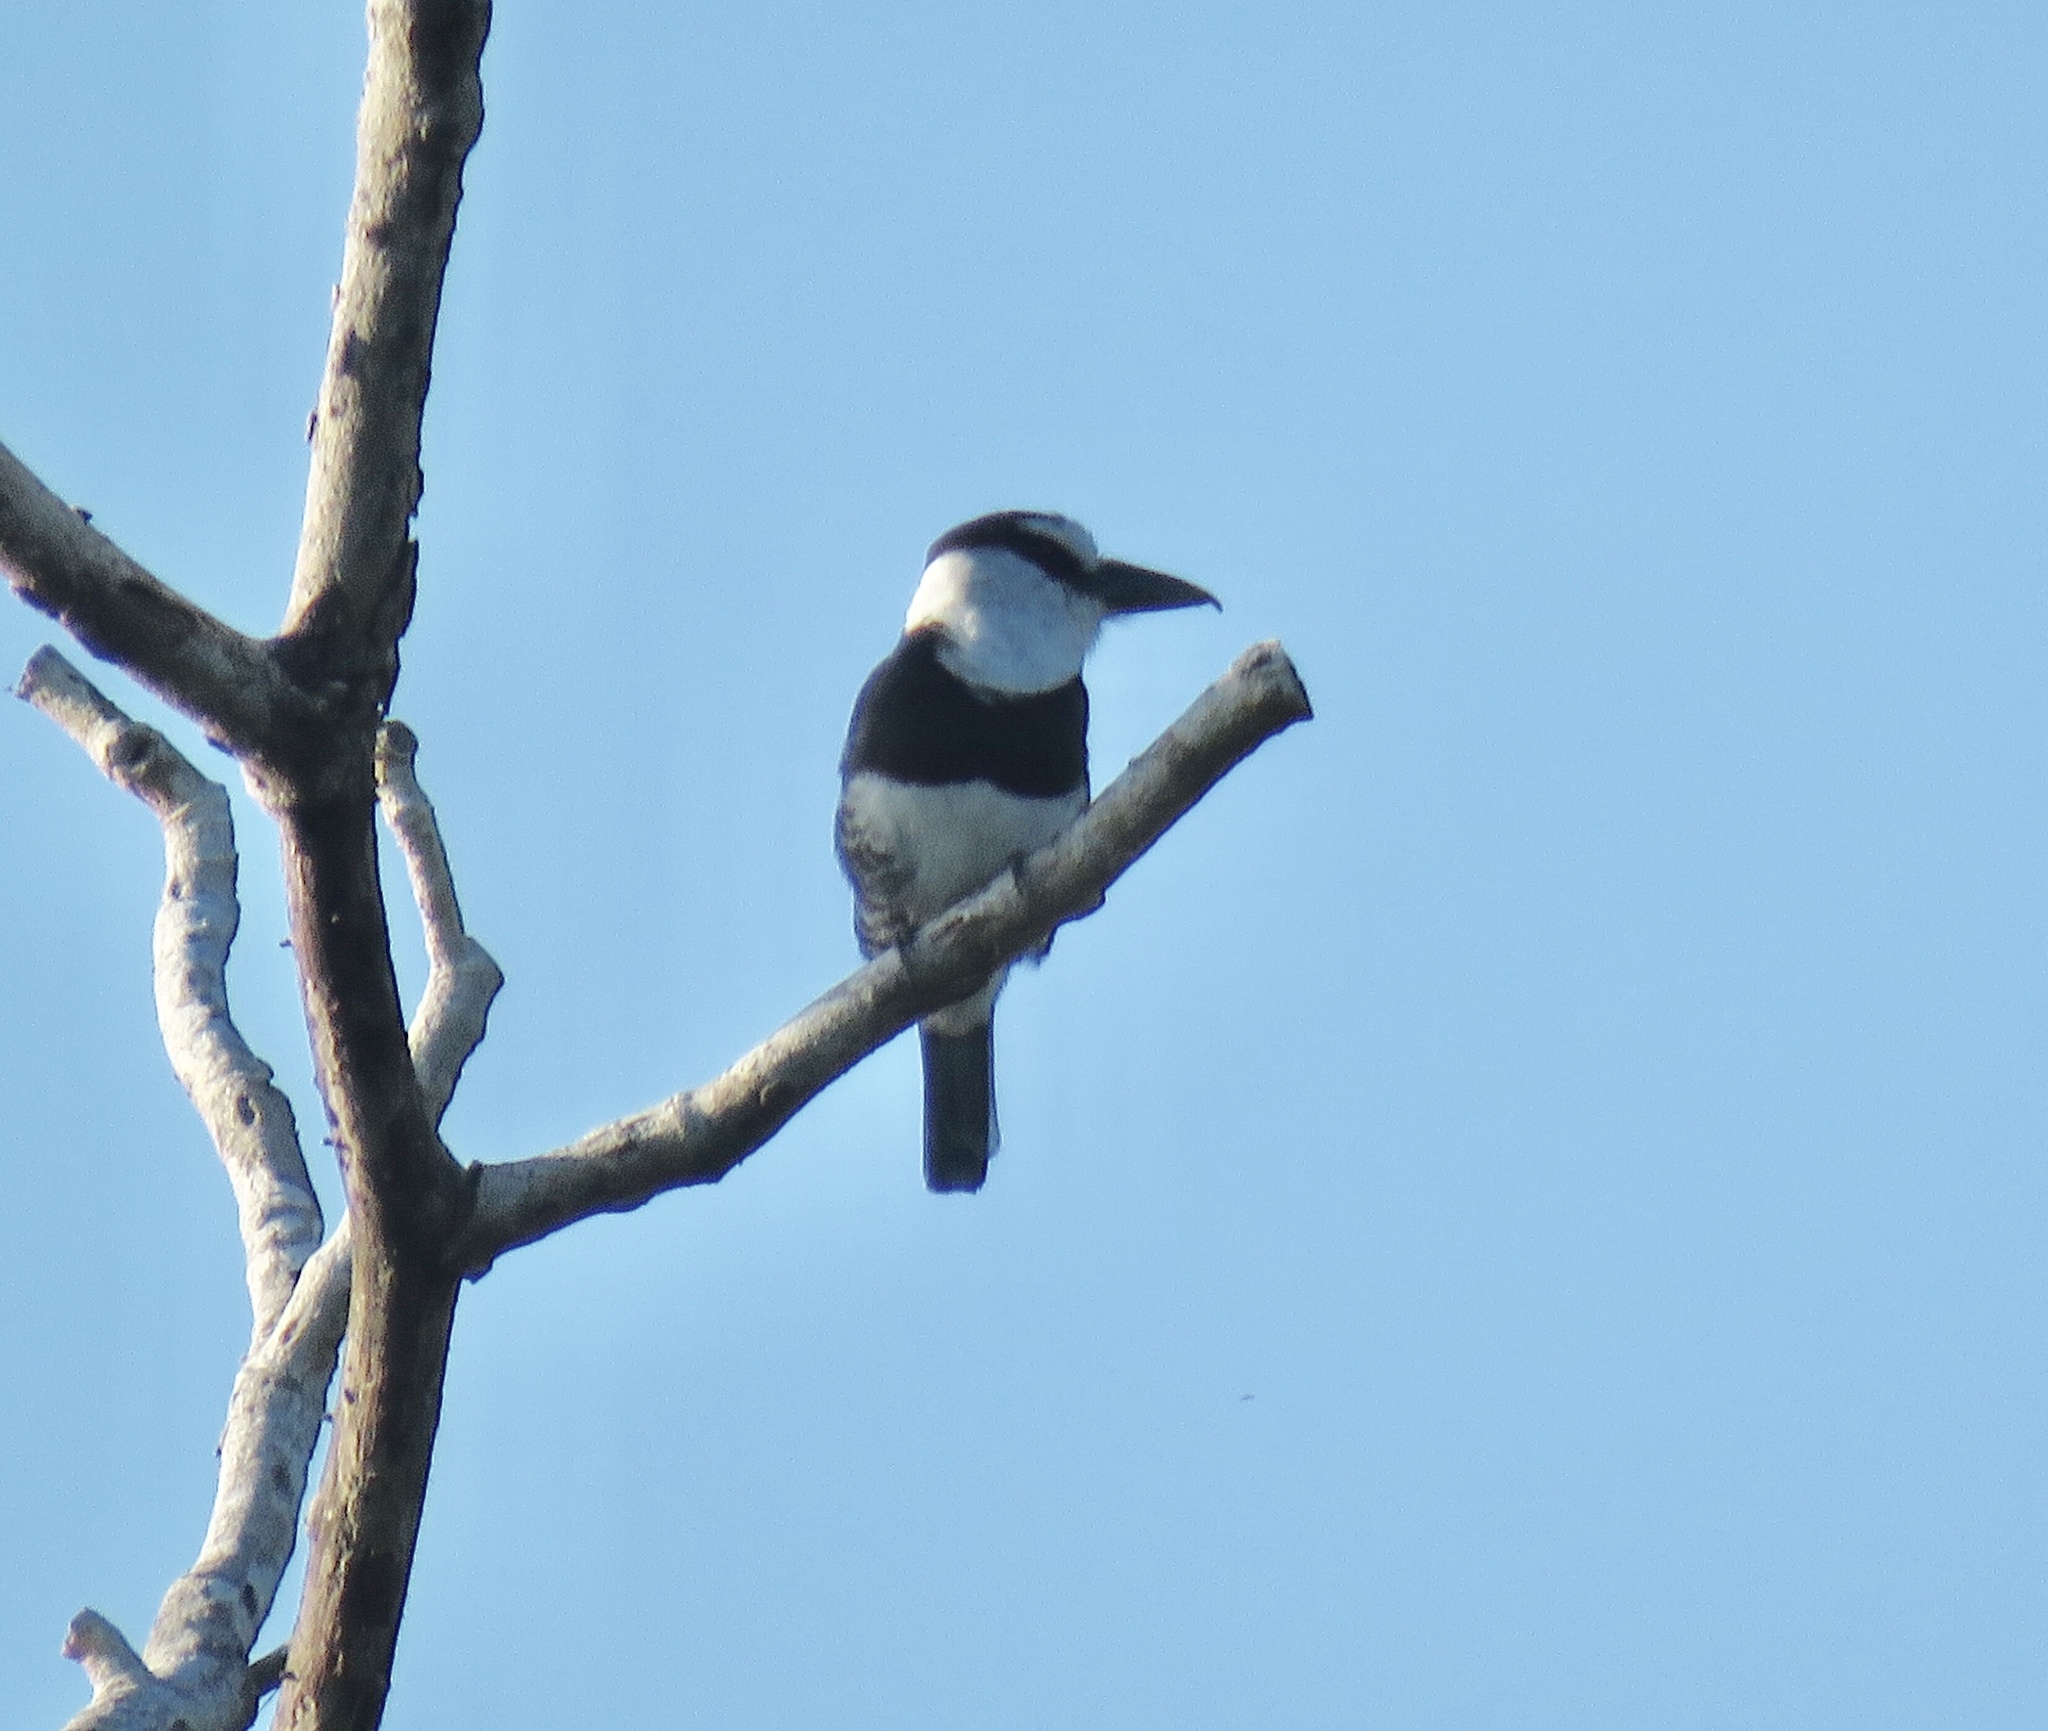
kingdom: Animalia
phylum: Chordata
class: Aves
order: Piciformes
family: Bucconidae
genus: Notharchus
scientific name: Notharchus hyperrhynchus
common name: White-necked puffbird
